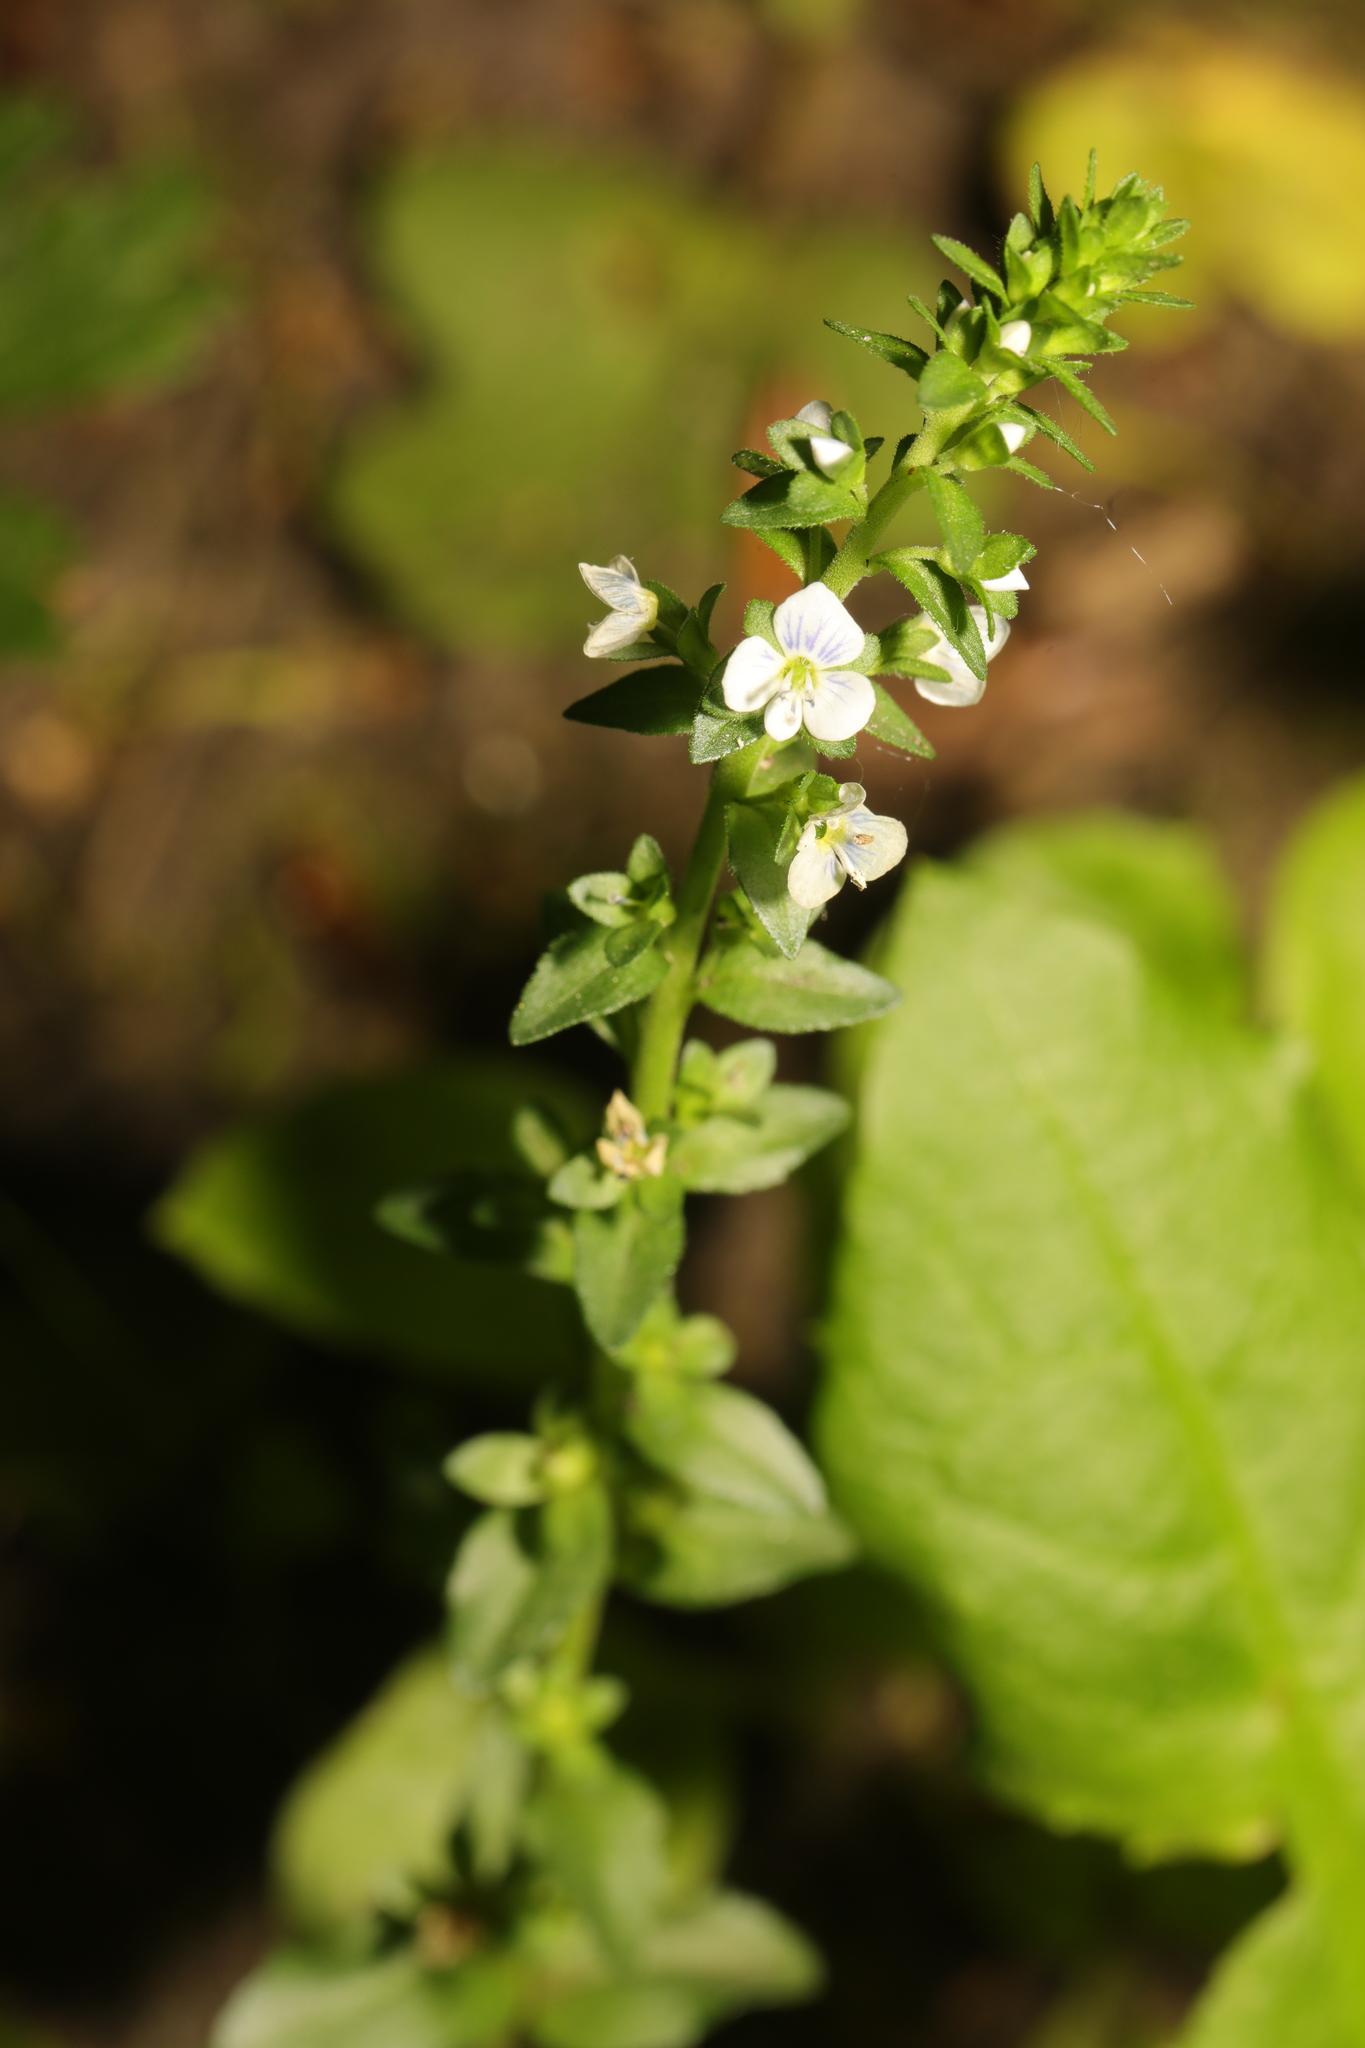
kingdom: Plantae
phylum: Tracheophyta
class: Magnoliopsida
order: Lamiales
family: Plantaginaceae
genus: Veronica
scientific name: Veronica serpyllifolia
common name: Thyme-leaved speedwell
